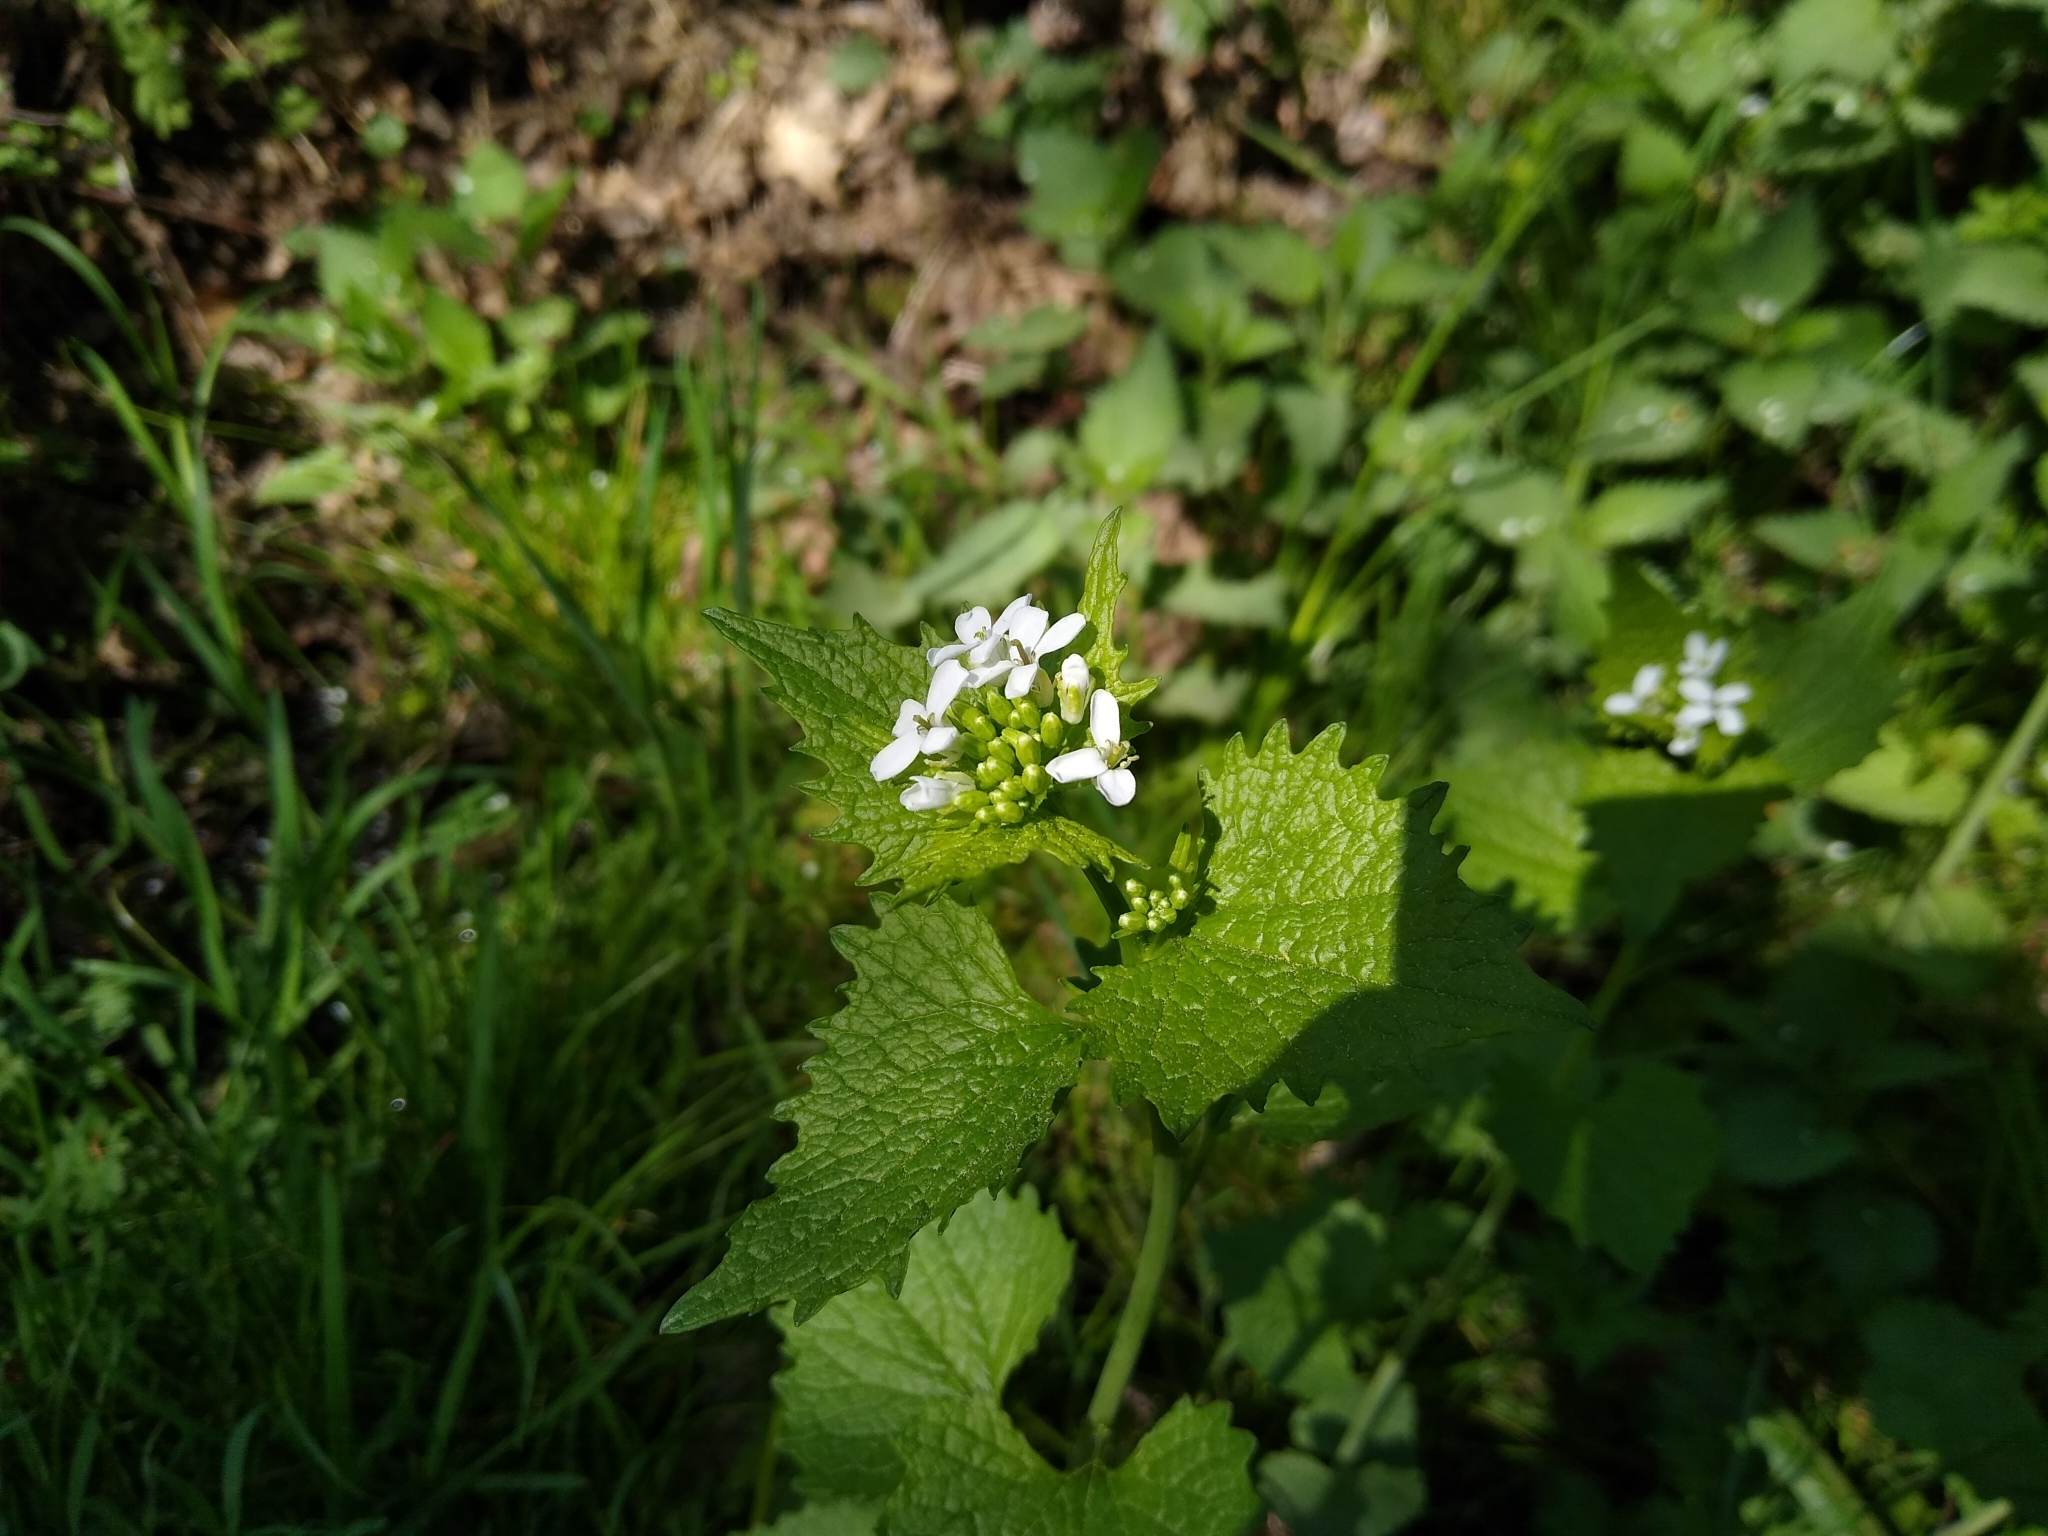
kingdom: Plantae
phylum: Tracheophyta
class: Magnoliopsida
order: Brassicales
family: Brassicaceae
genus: Alliaria
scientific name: Alliaria petiolata
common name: Garlic mustard
